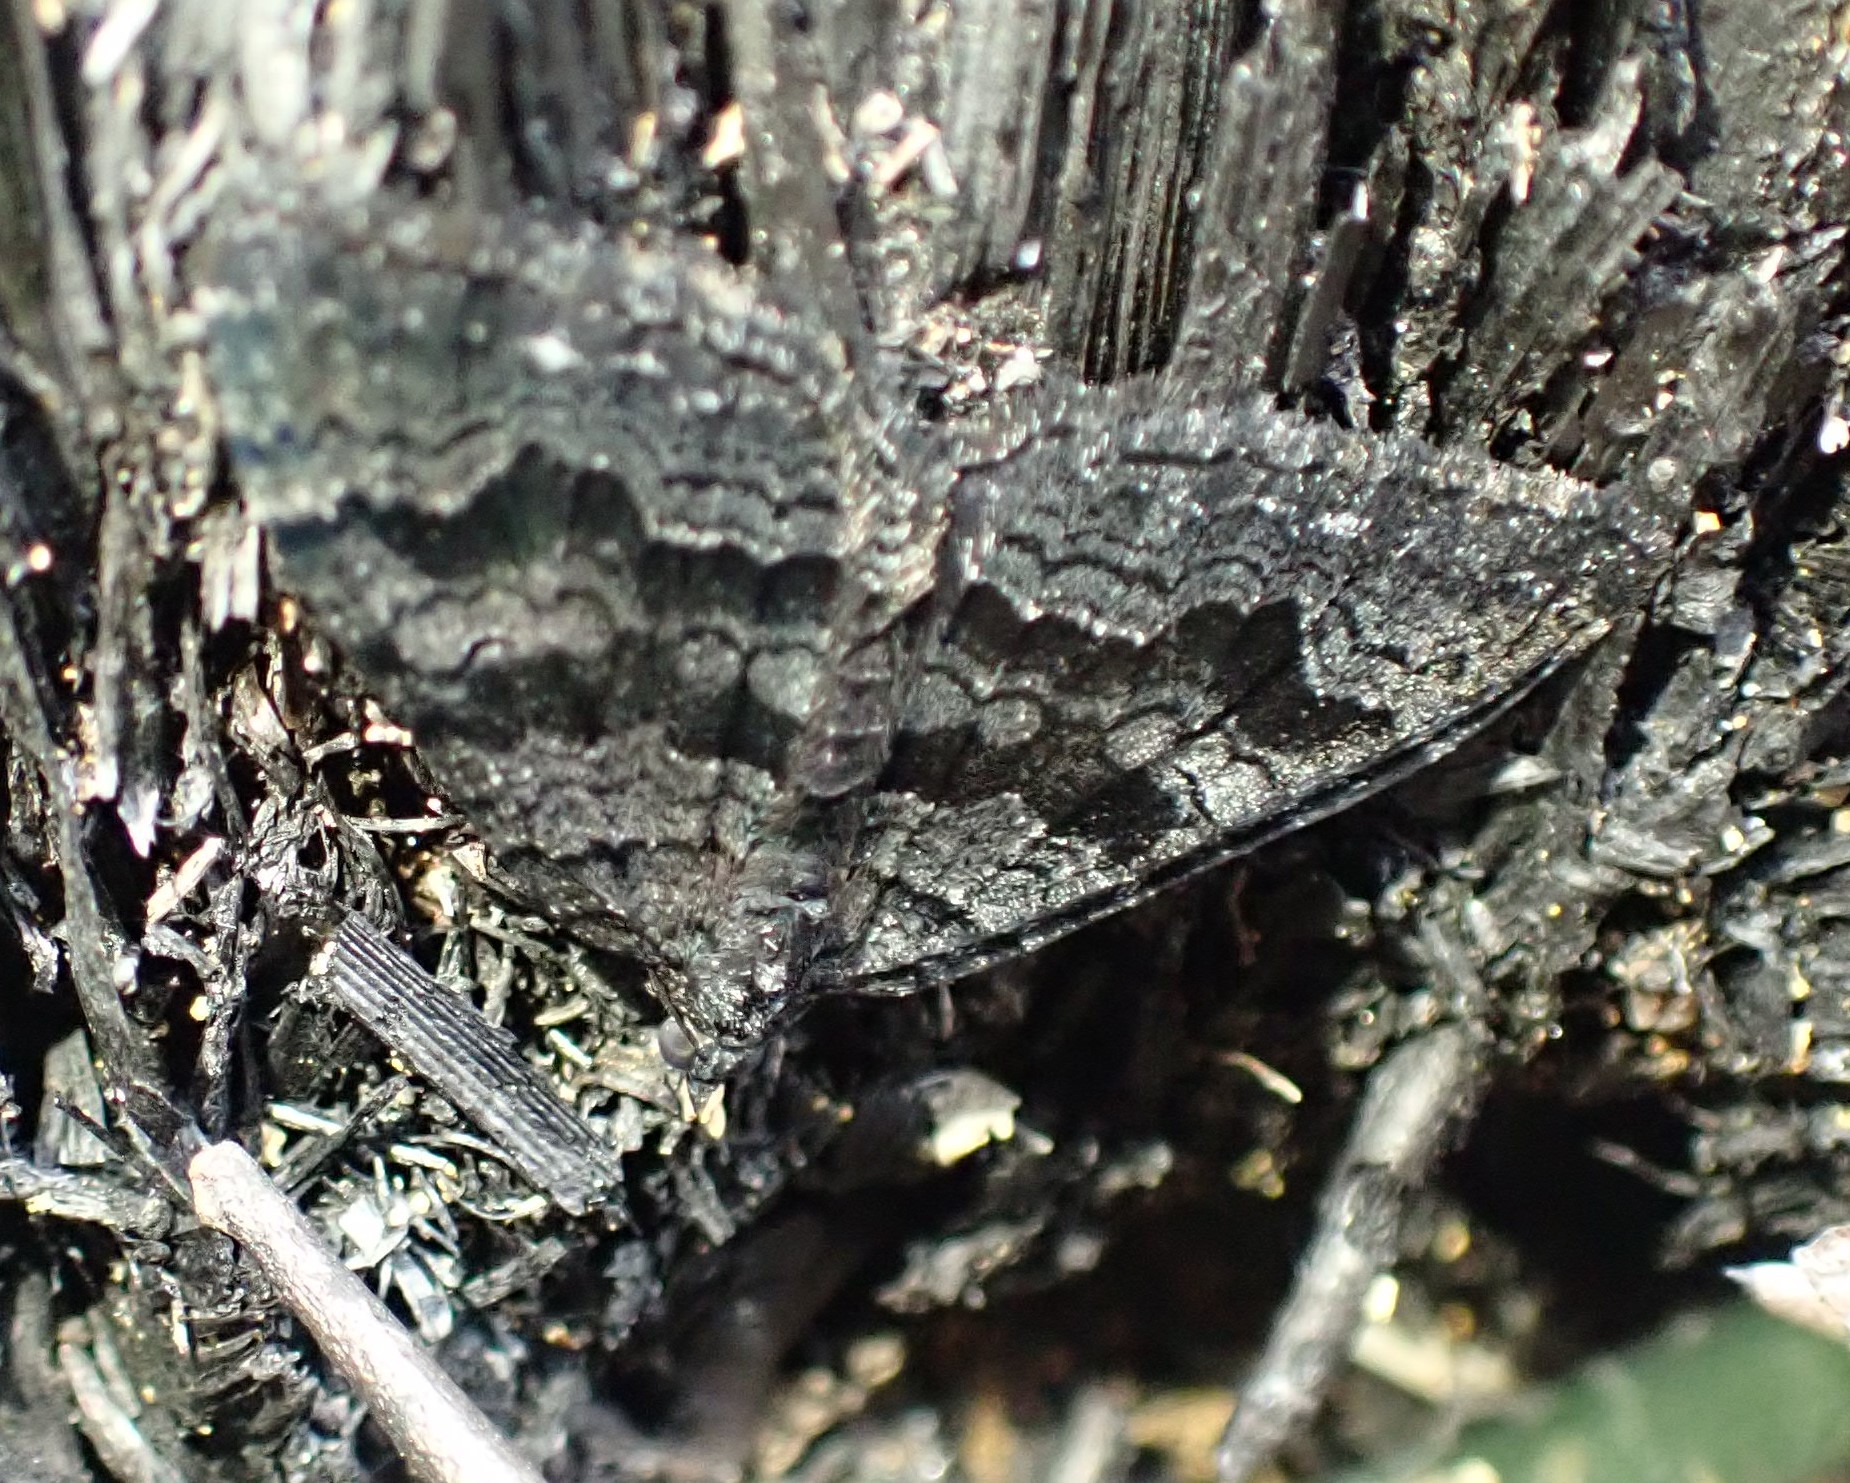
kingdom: Animalia
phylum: Arthropoda
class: Insecta
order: Lepidoptera
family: Geometridae
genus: Xanthorhoe
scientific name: Xanthorhoe anthracinata
